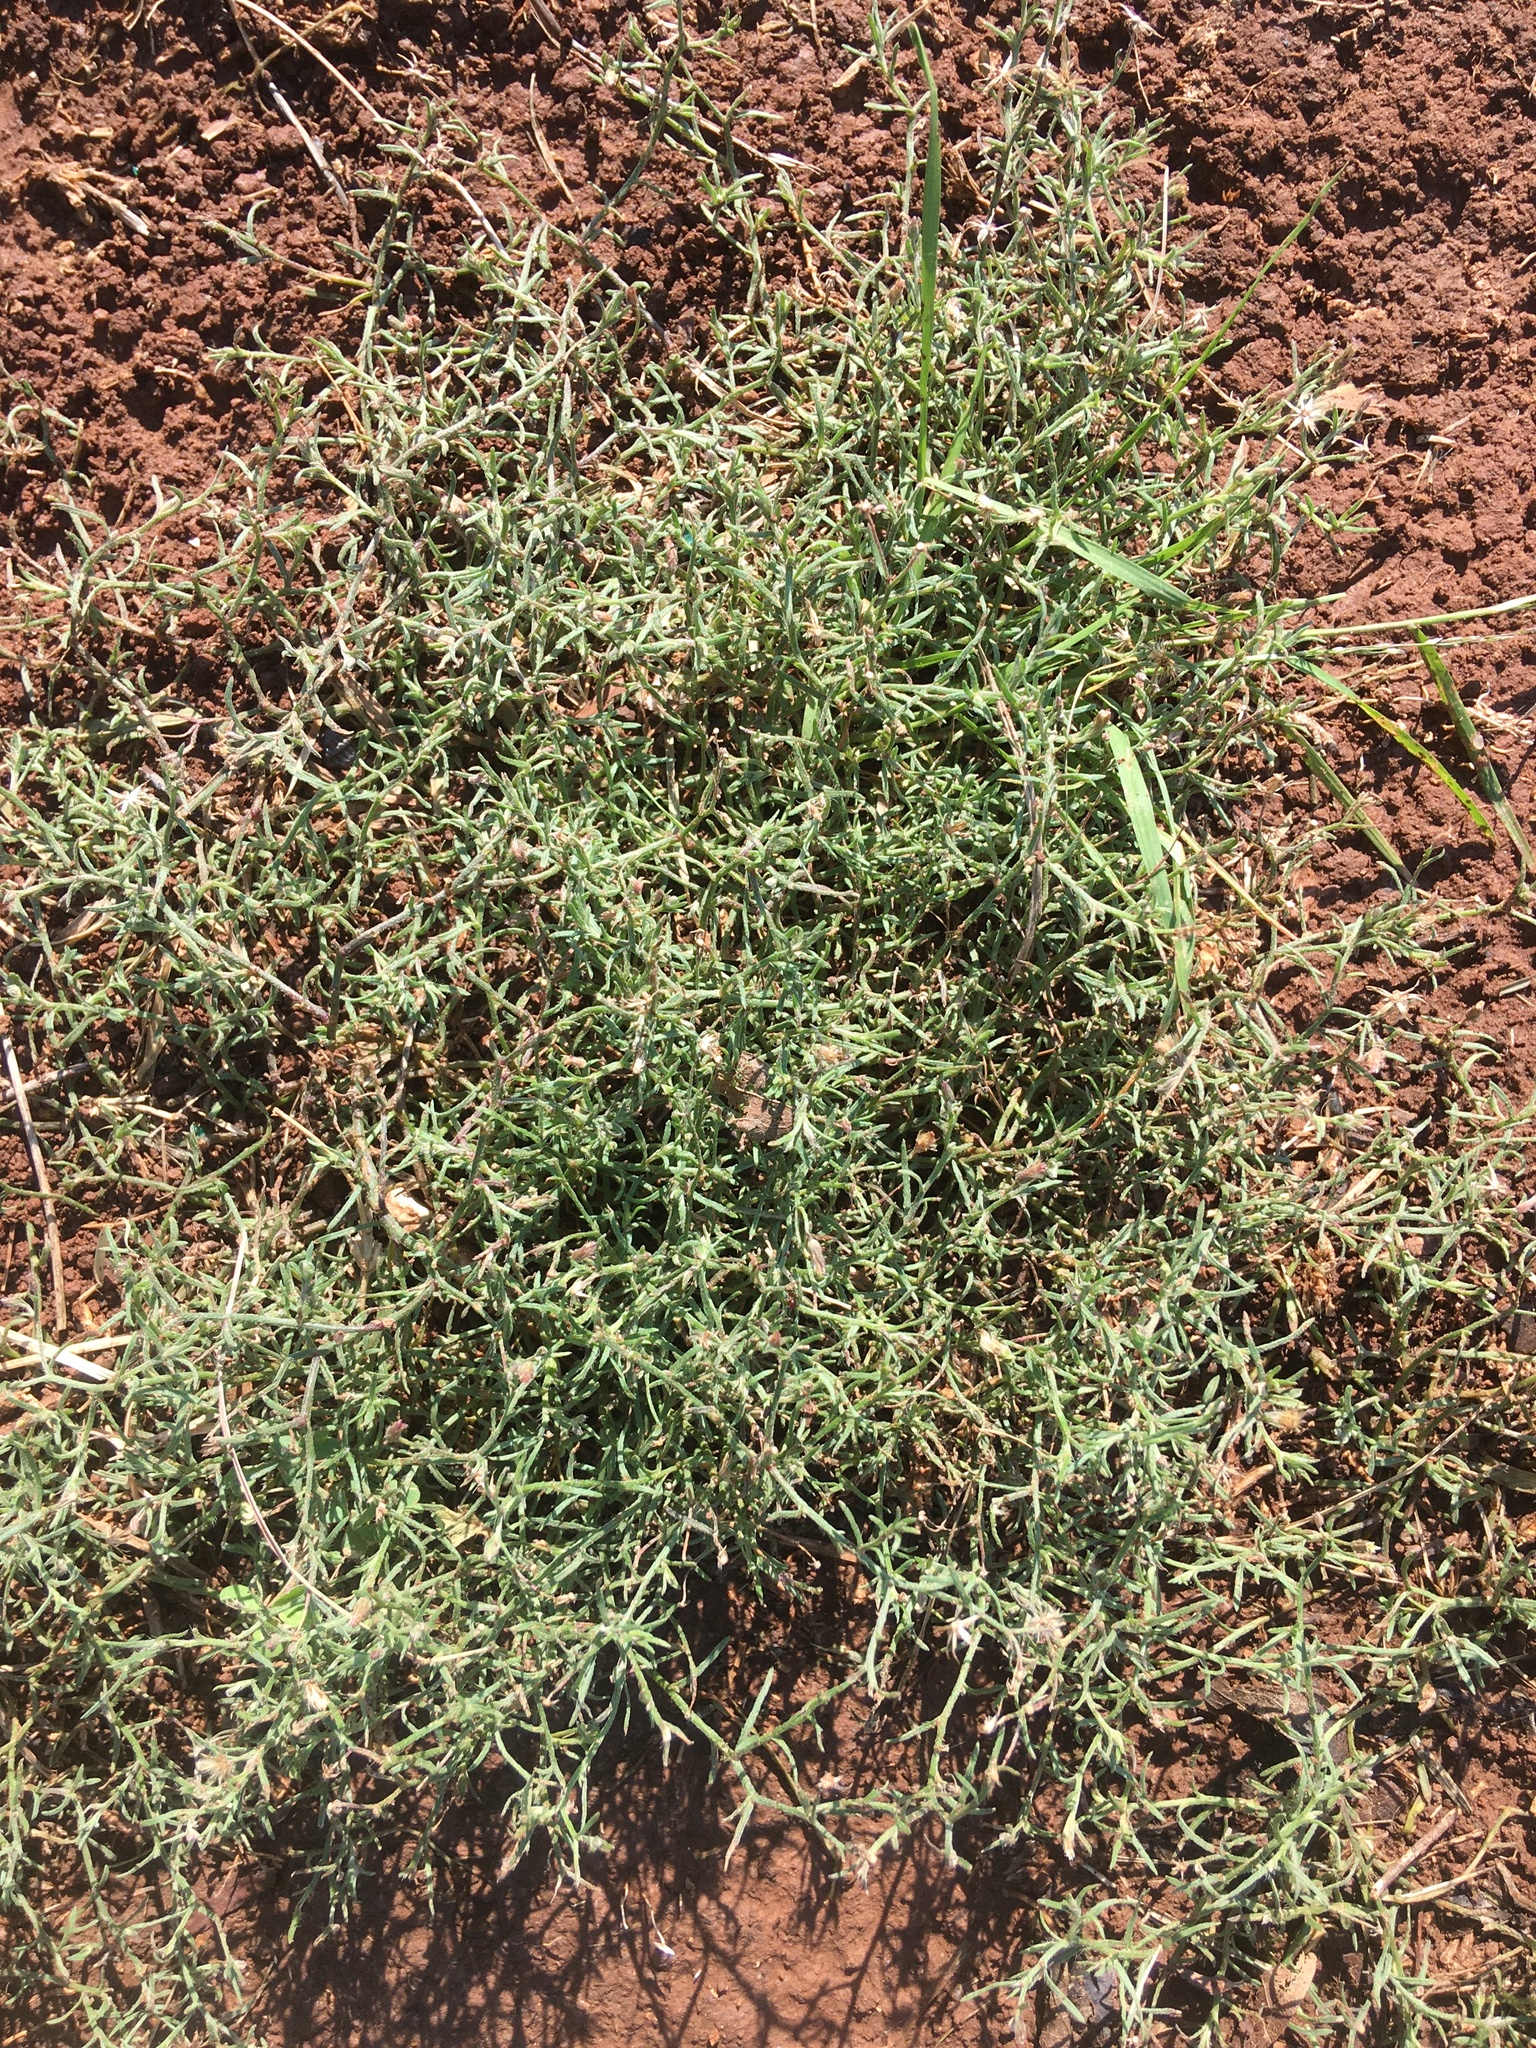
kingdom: Plantae
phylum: Tracheophyta
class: Magnoliopsida
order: Asterales
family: Asteraceae
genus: Erigeron
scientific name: Erigeron divaricatus
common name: Dwarf conyza
